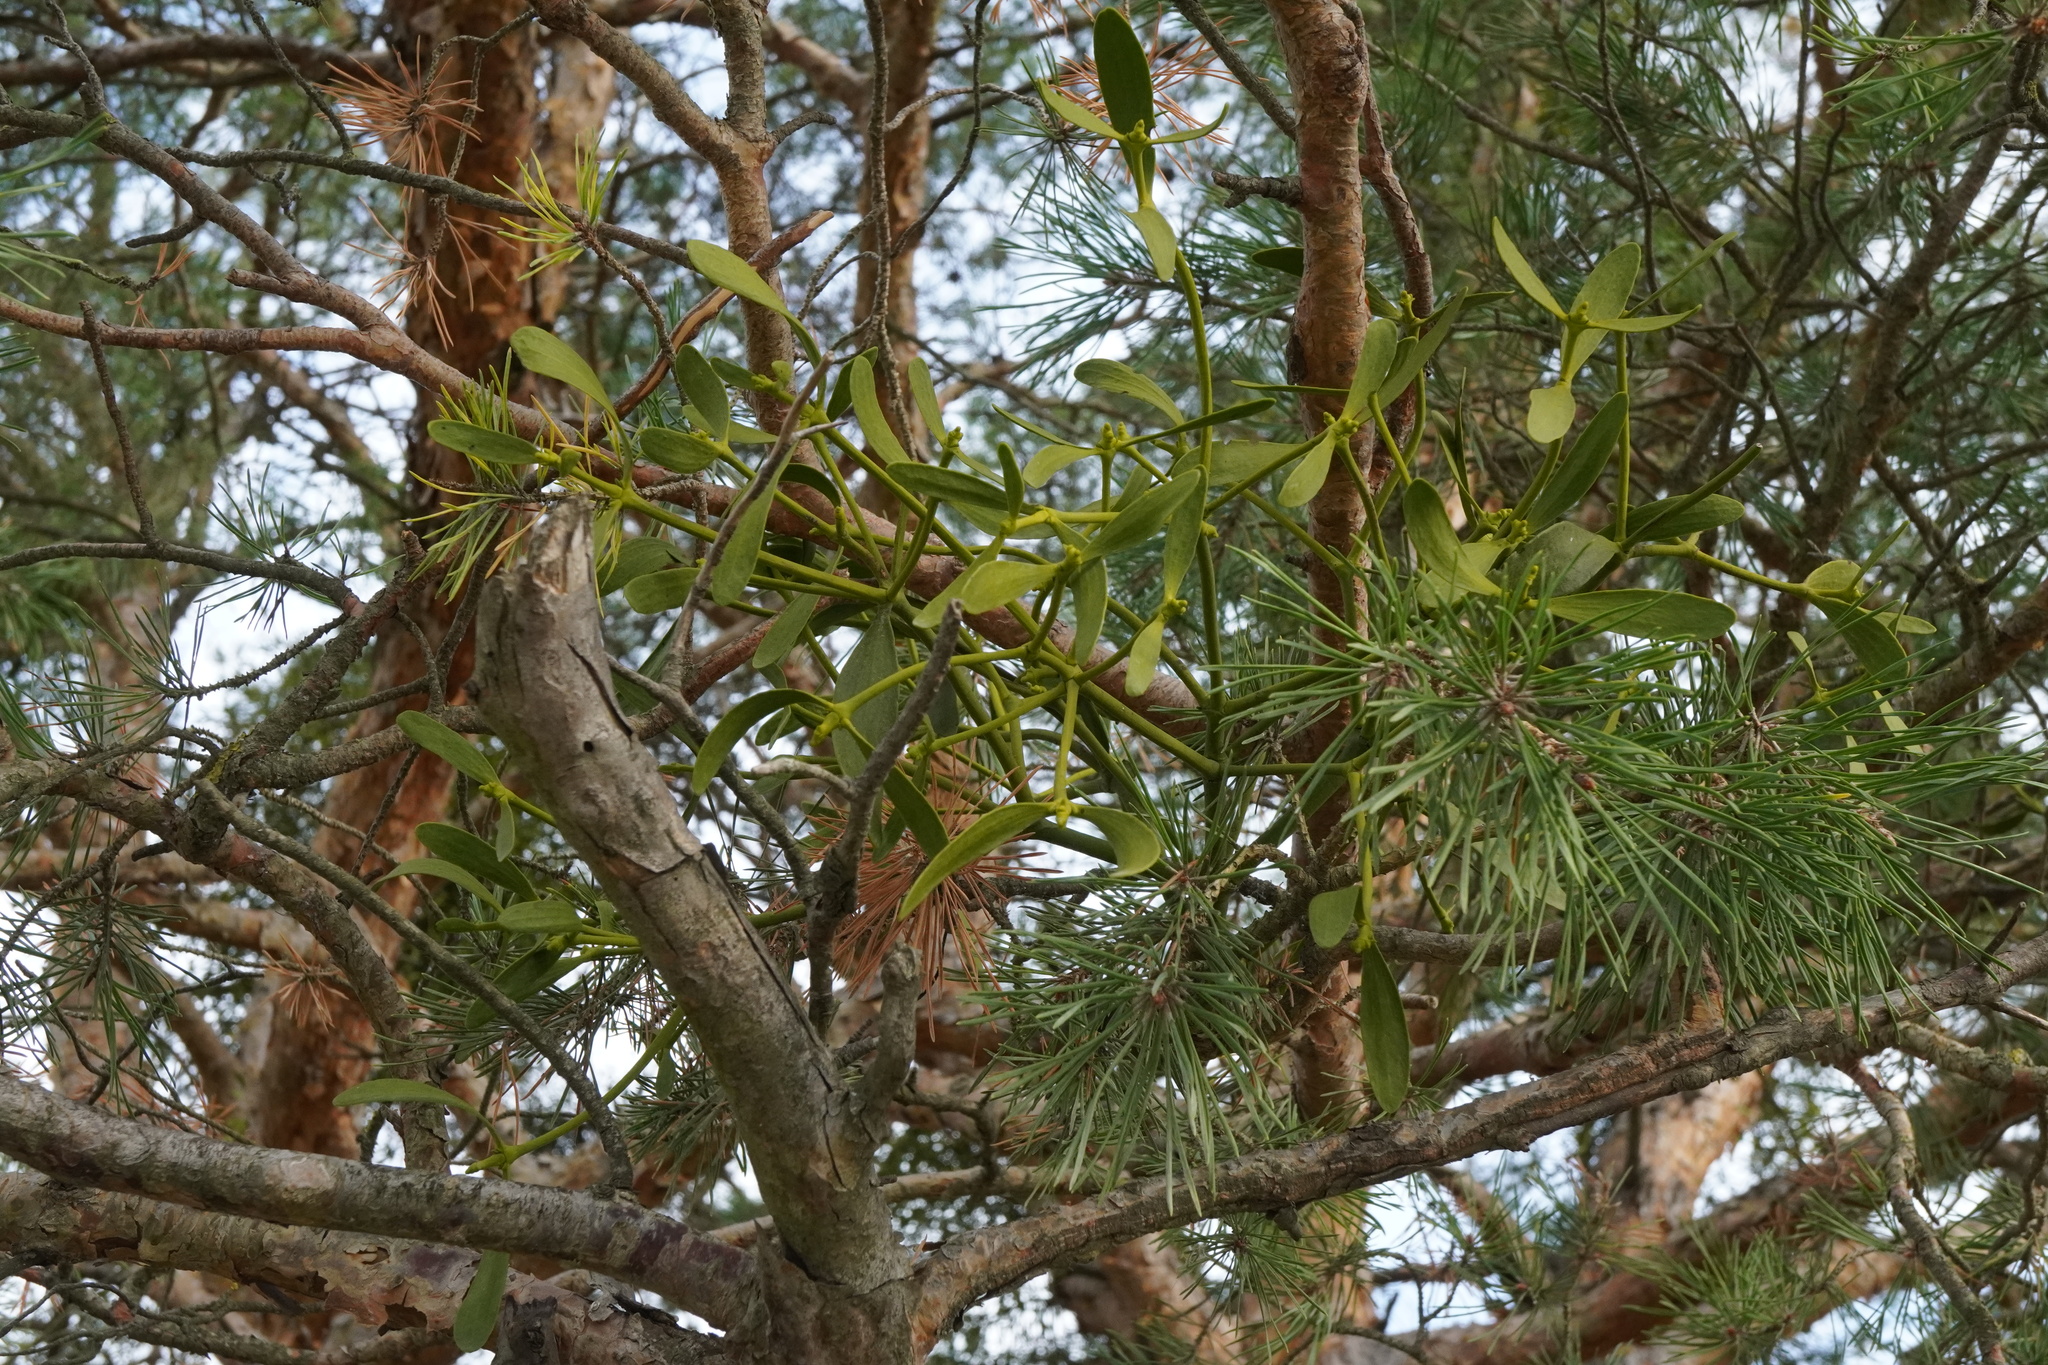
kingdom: Plantae
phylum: Tracheophyta
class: Magnoliopsida
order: Santalales
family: Viscaceae
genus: Viscum
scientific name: Viscum laxum
